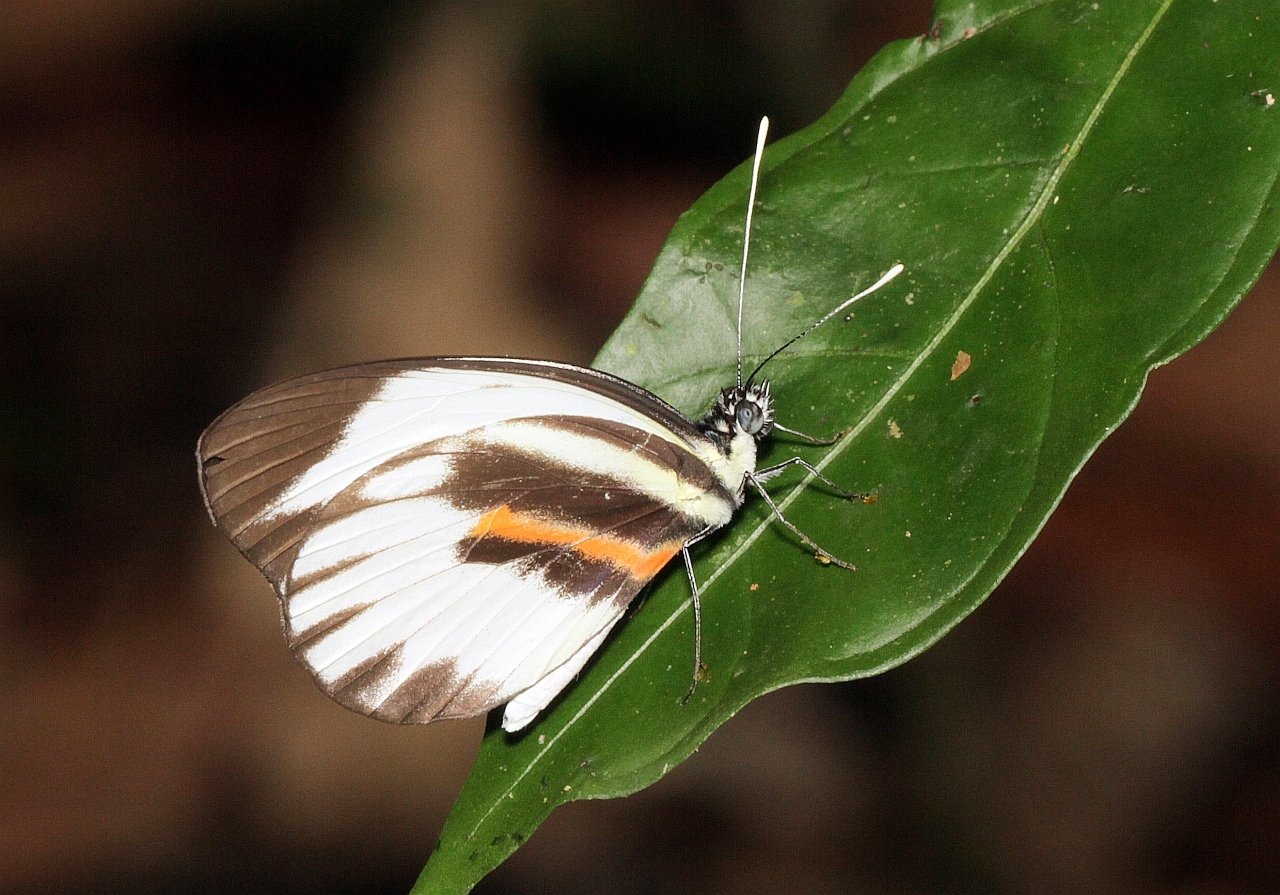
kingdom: Animalia
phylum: Arthropoda
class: Insecta
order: Lepidoptera
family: Pieridae
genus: Perrhybris
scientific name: Perrhybris pamela
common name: Chiapas white
